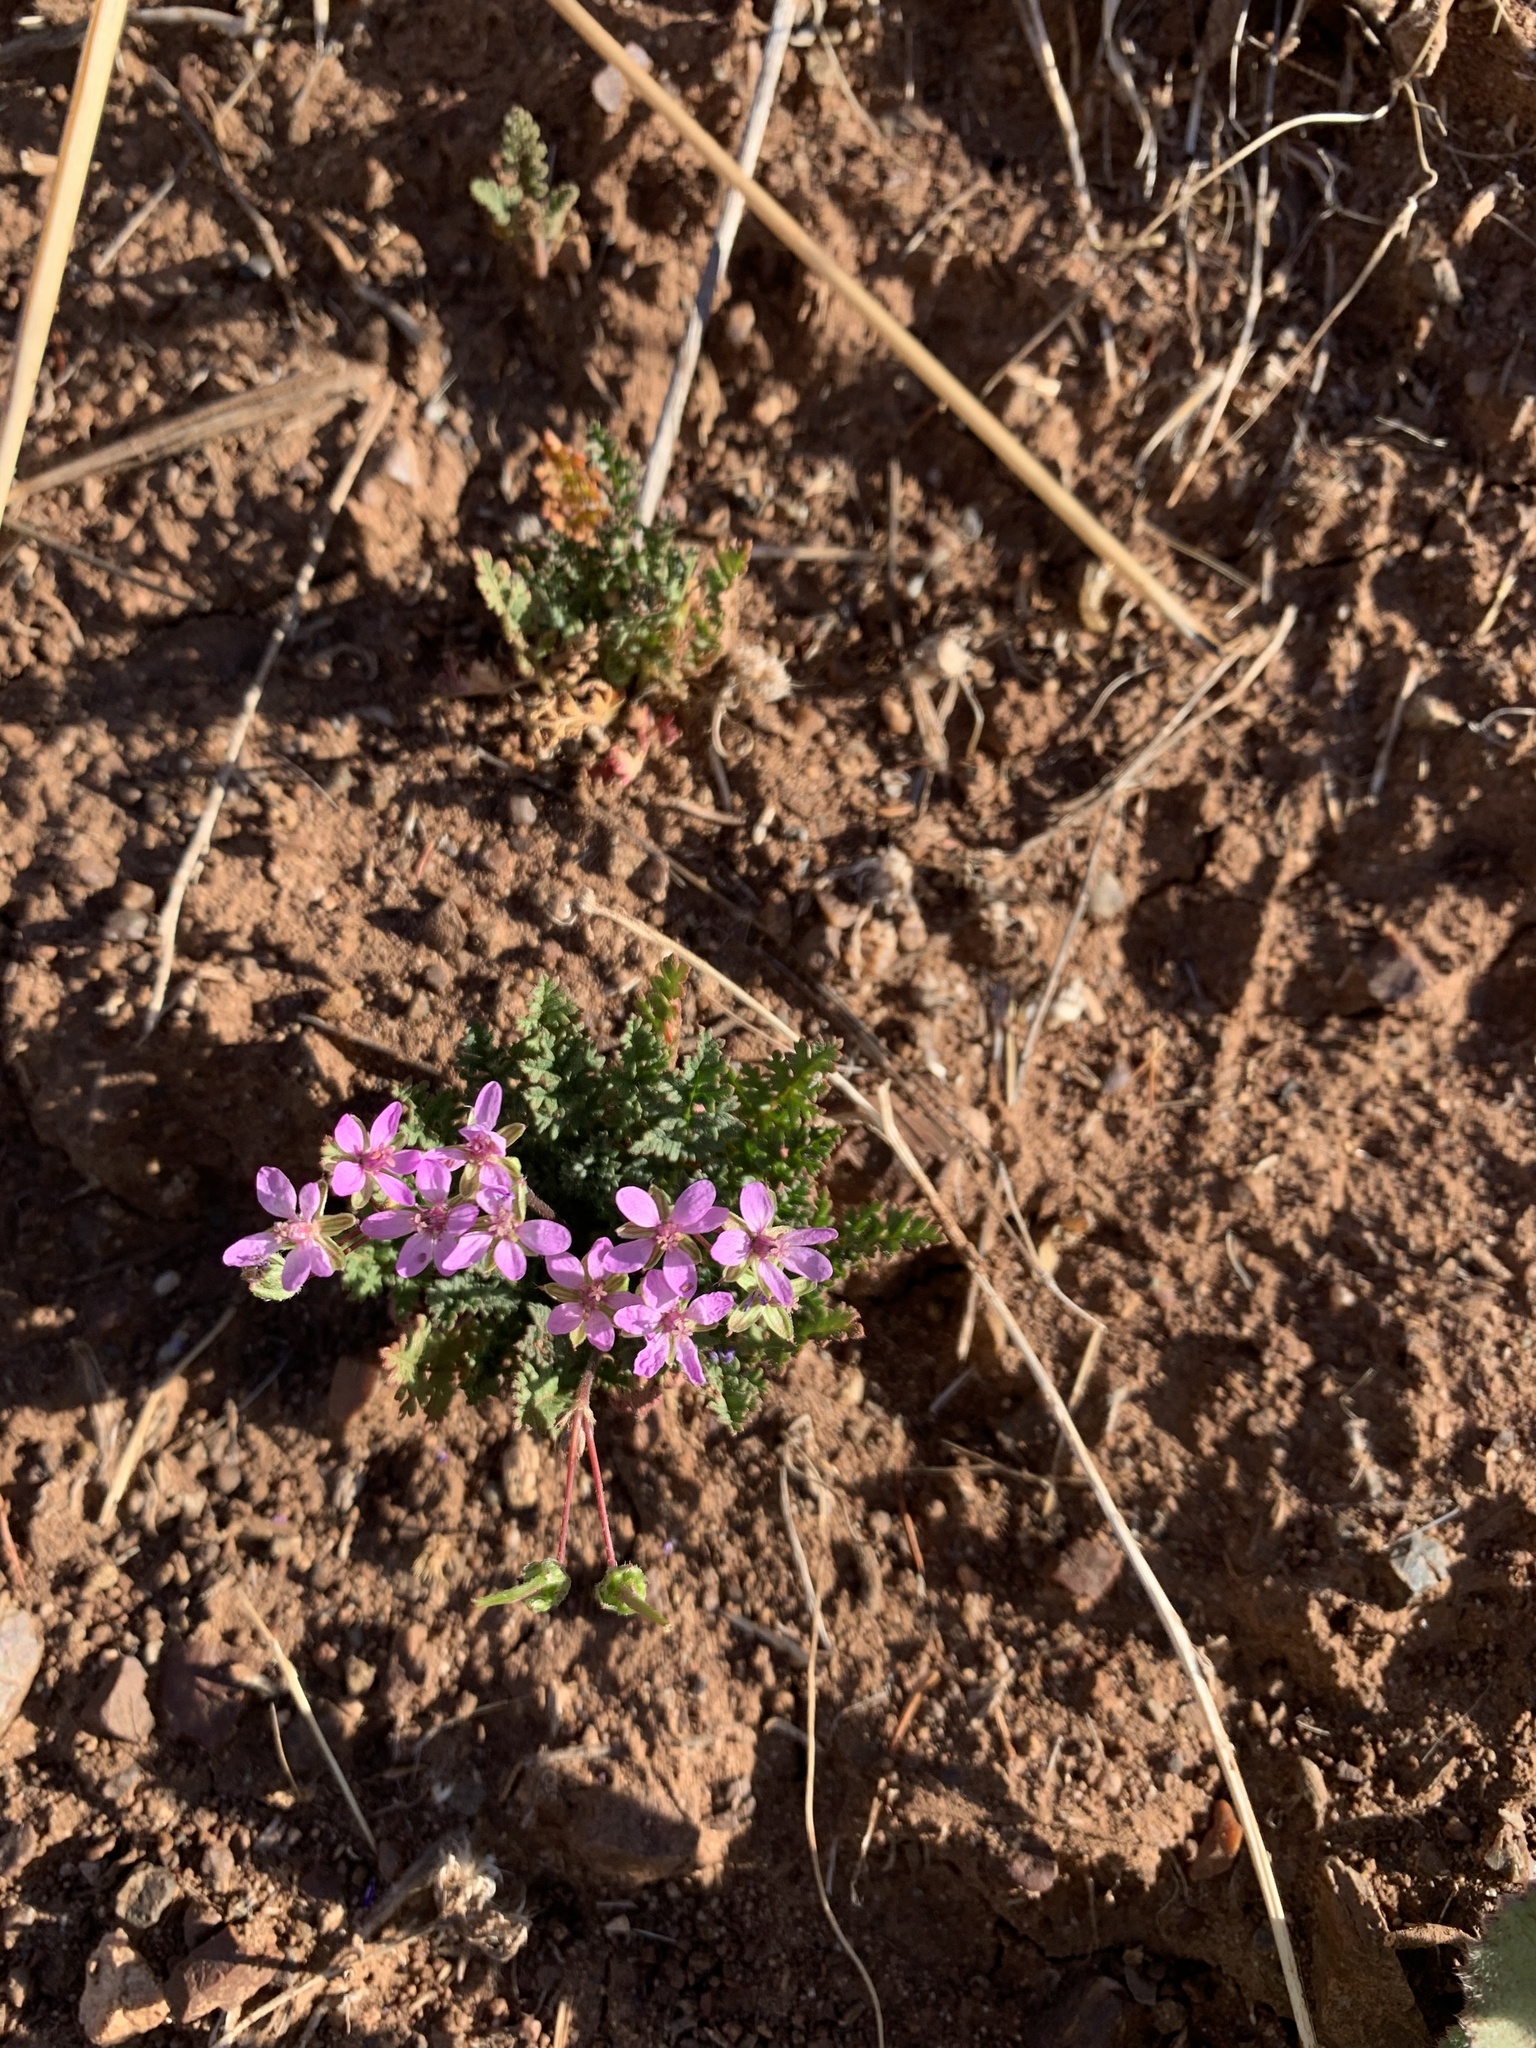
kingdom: Plantae
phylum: Tracheophyta
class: Magnoliopsida
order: Geraniales
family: Geraniaceae
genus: Erodium
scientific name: Erodium cicutarium
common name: Common stork's-bill
